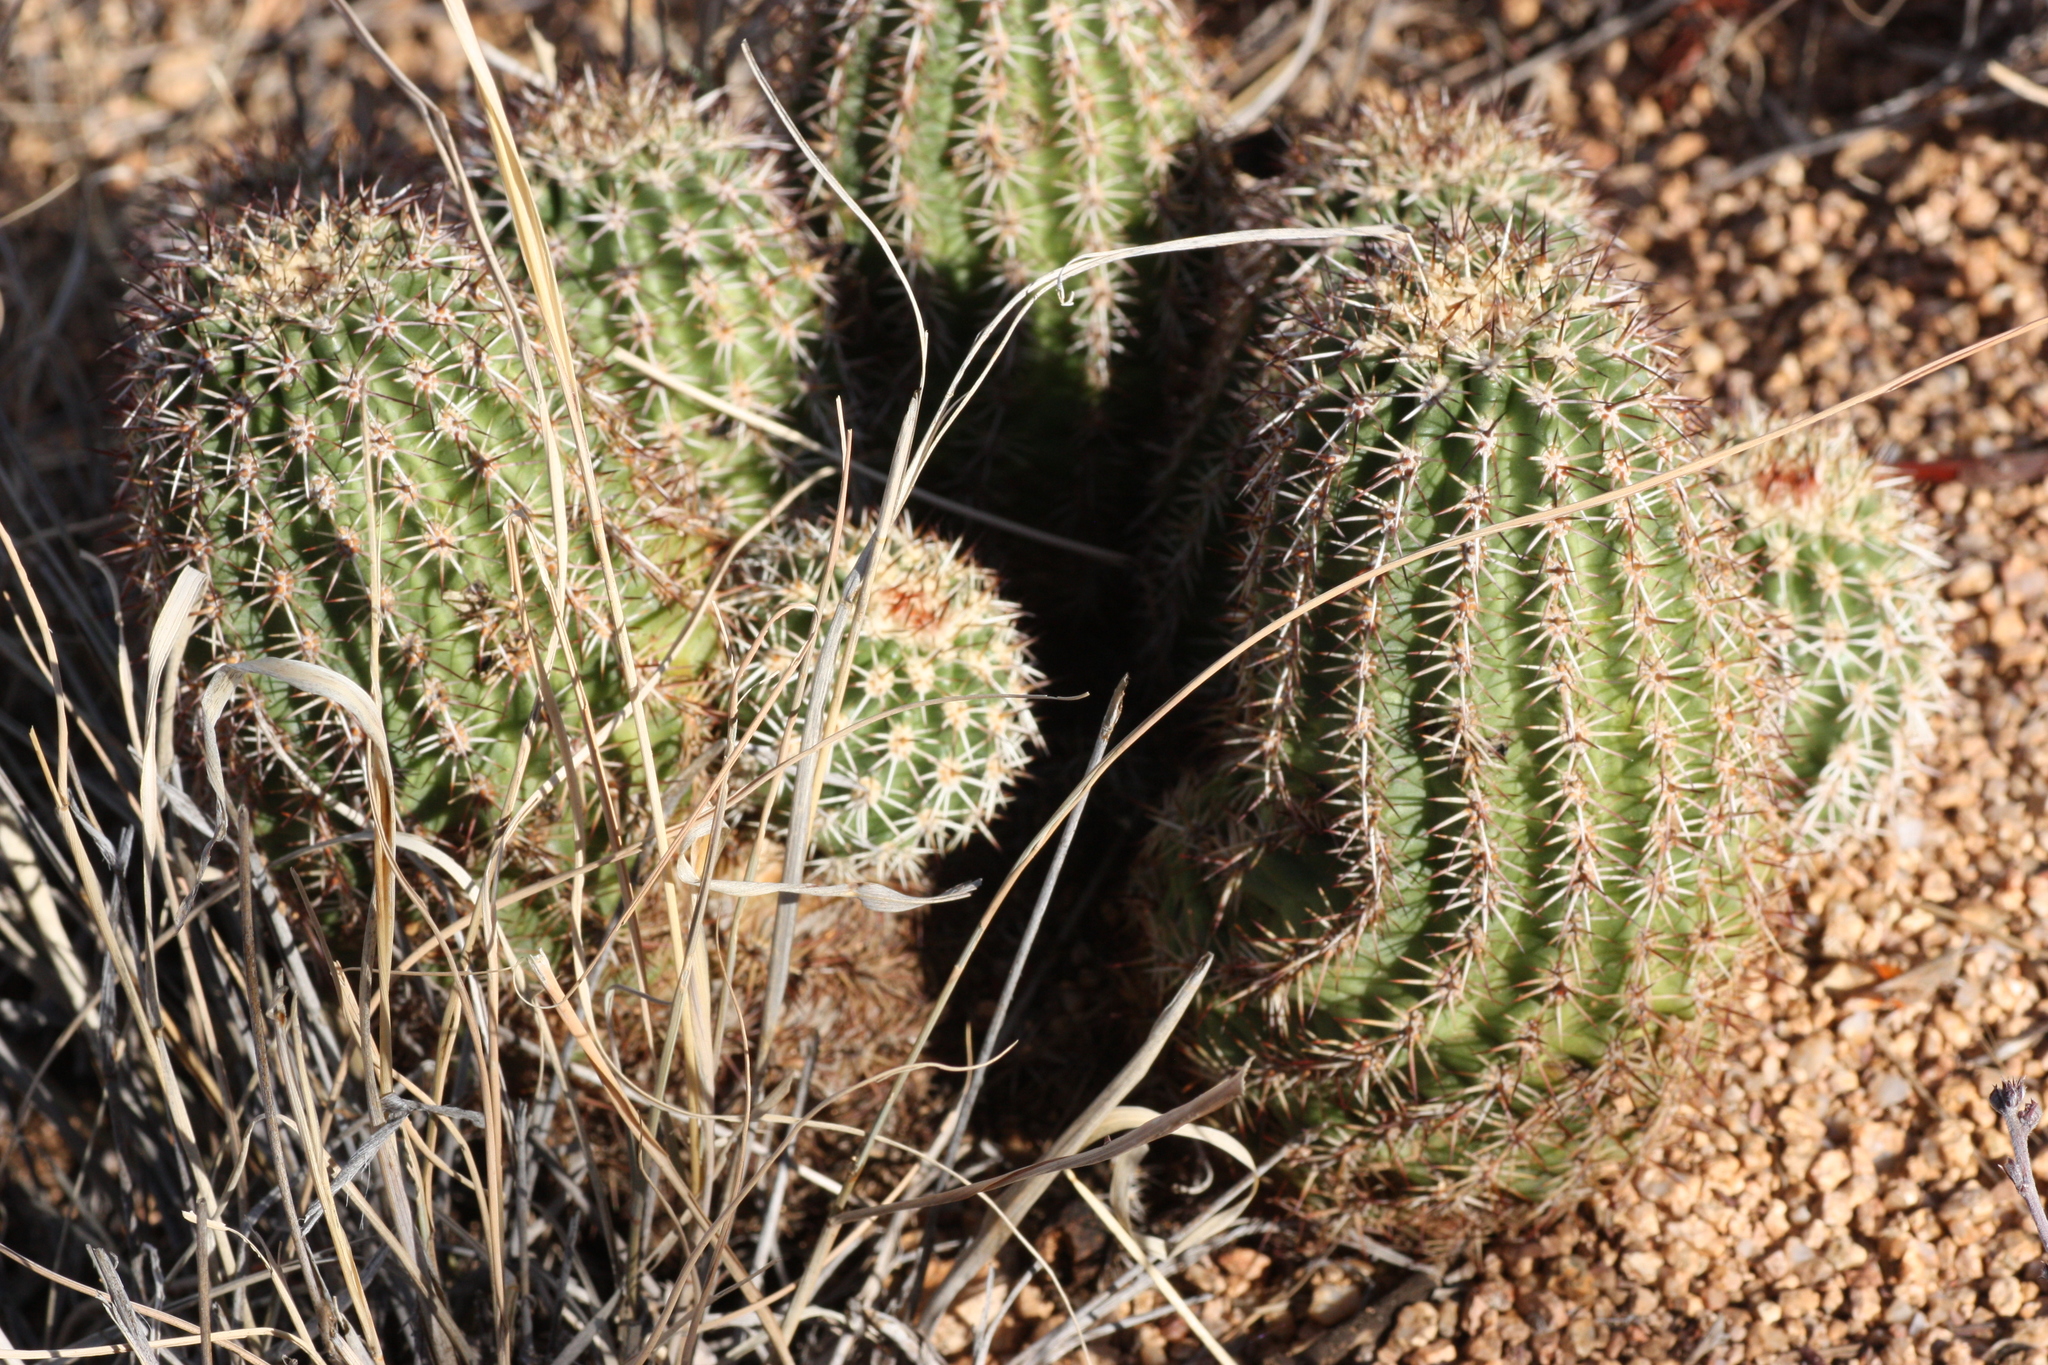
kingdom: Plantae
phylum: Tracheophyta
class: Magnoliopsida
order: Caryophyllales
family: Cactaceae
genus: Echinocereus
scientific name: Echinocereus bonkerae
